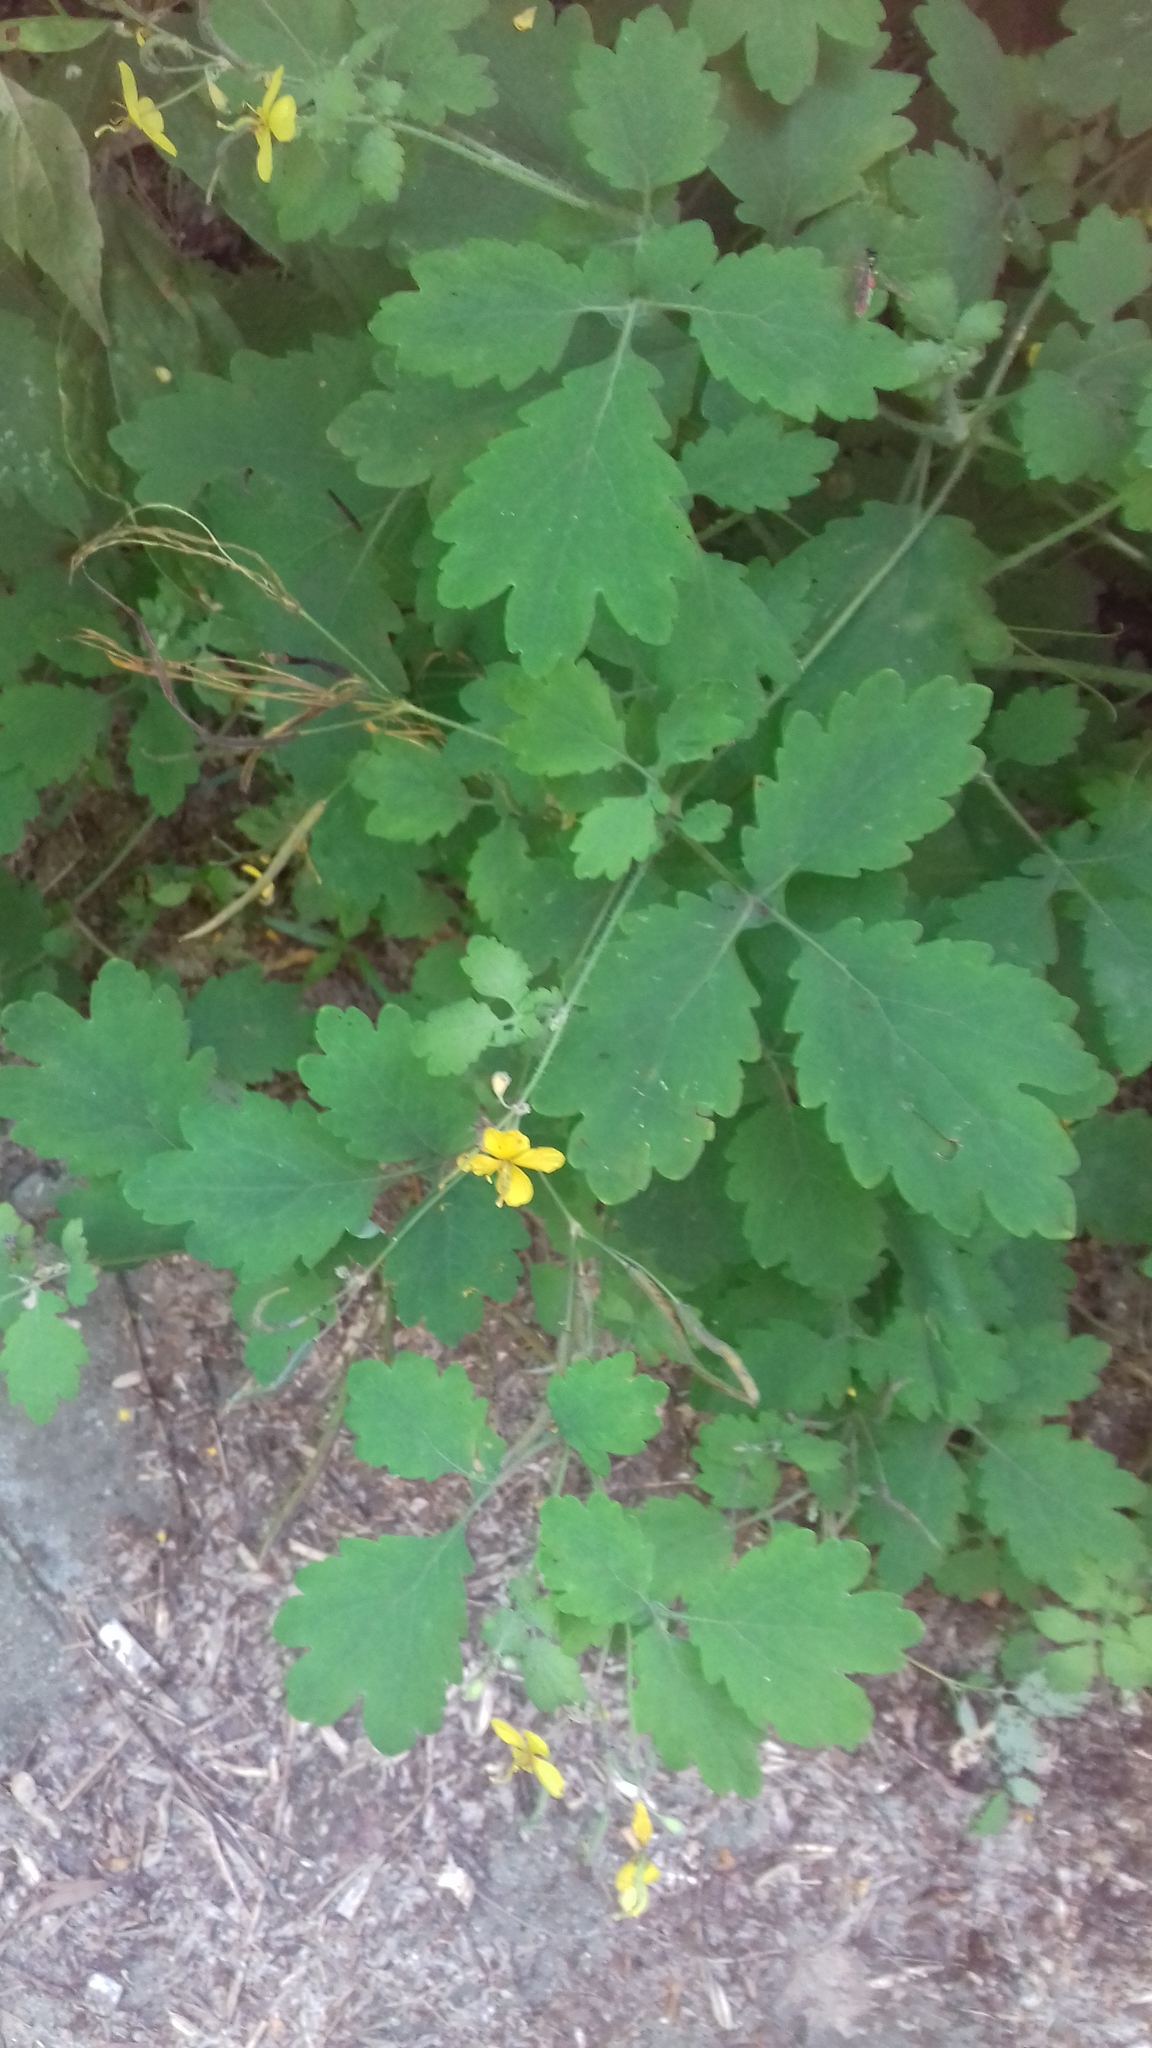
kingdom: Plantae
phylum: Tracheophyta
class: Magnoliopsida
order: Ranunculales
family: Papaveraceae
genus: Chelidonium
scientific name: Chelidonium majus
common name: Greater celandine
